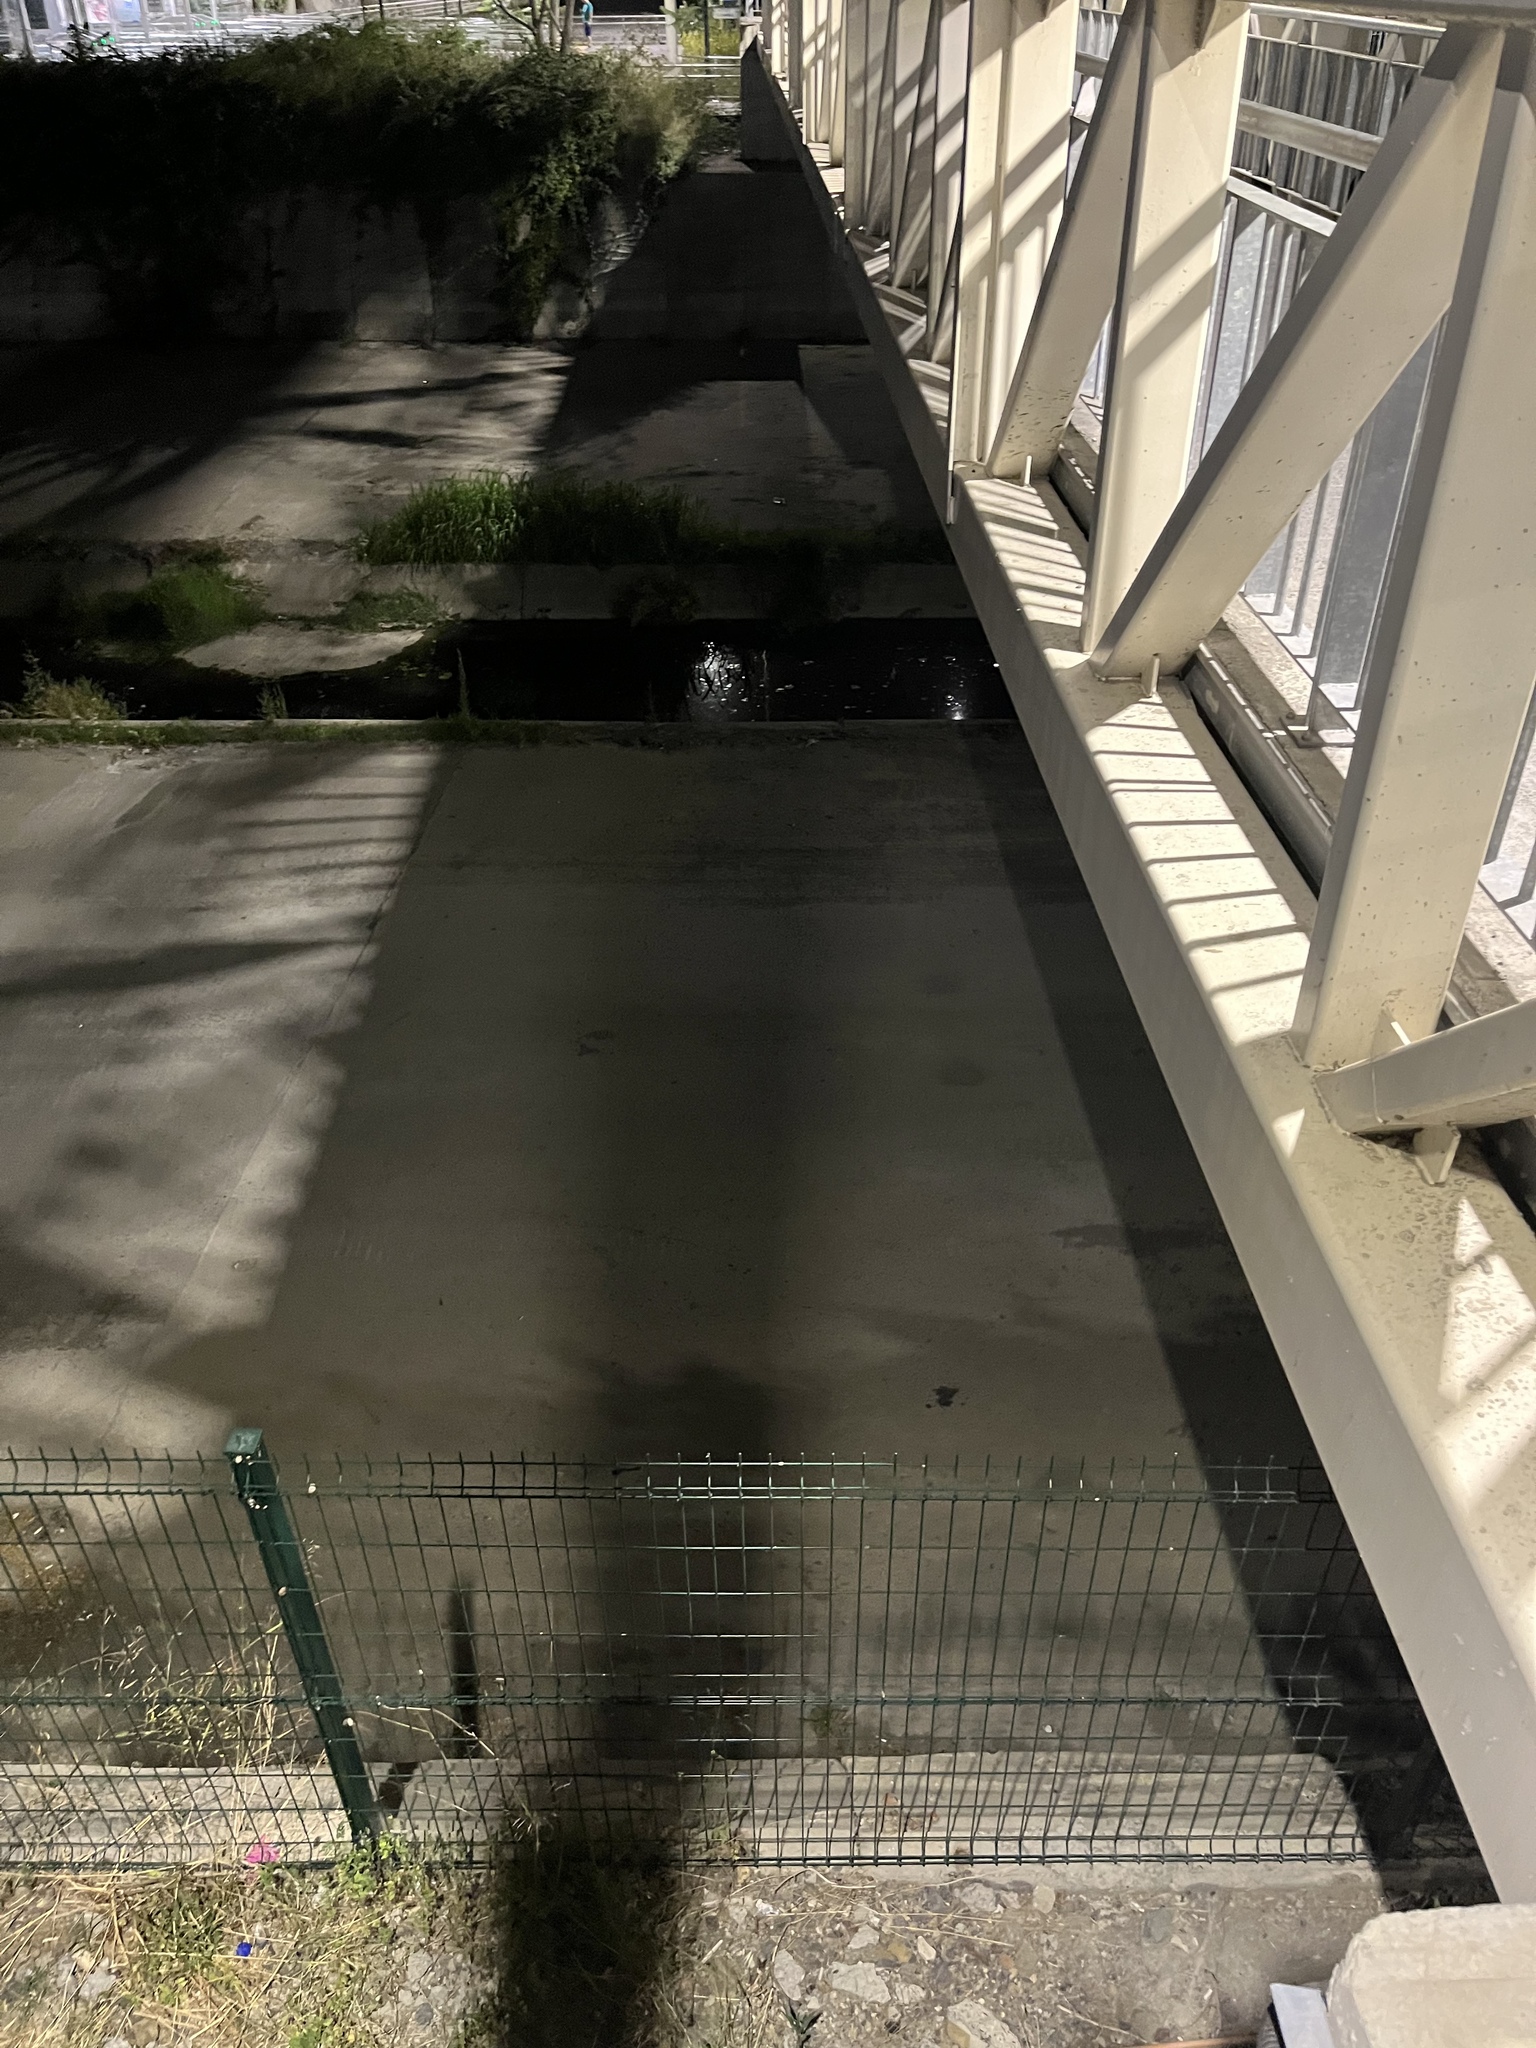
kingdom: Animalia
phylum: Chordata
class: Amphibia
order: Anura
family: Ranidae
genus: Pelophylax
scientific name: Pelophylax ridibundus
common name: Marsh frog
